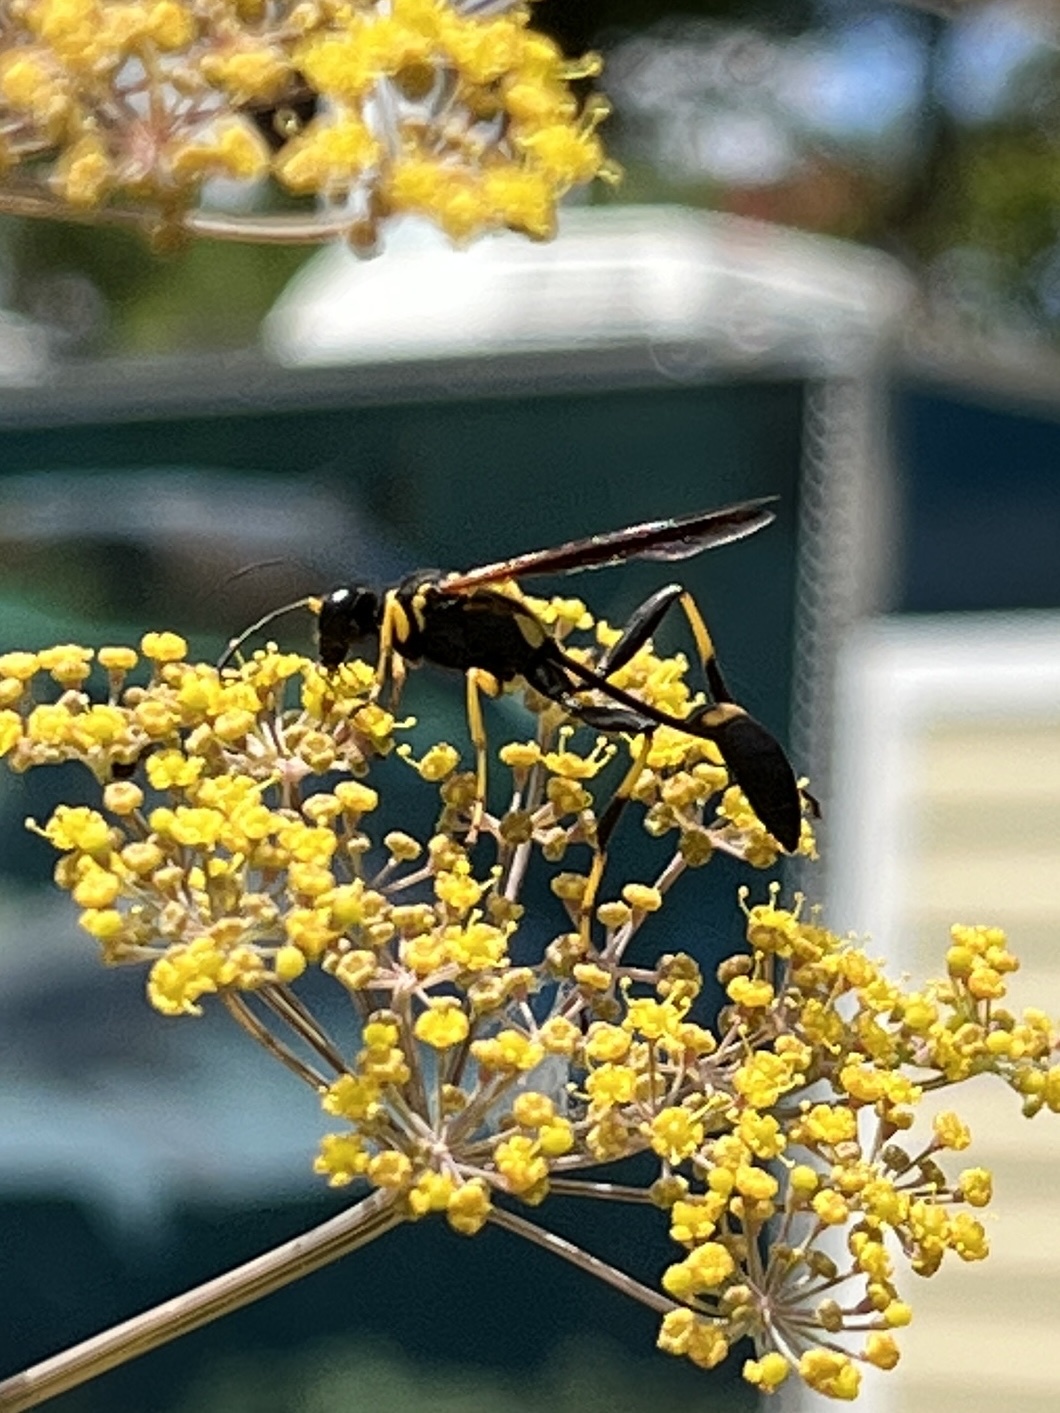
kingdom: Animalia
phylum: Arthropoda
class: Insecta
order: Hymenoptera
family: Sphecidae
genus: Sceliphron
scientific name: Sceliphron caementarium
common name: Mud dauber
